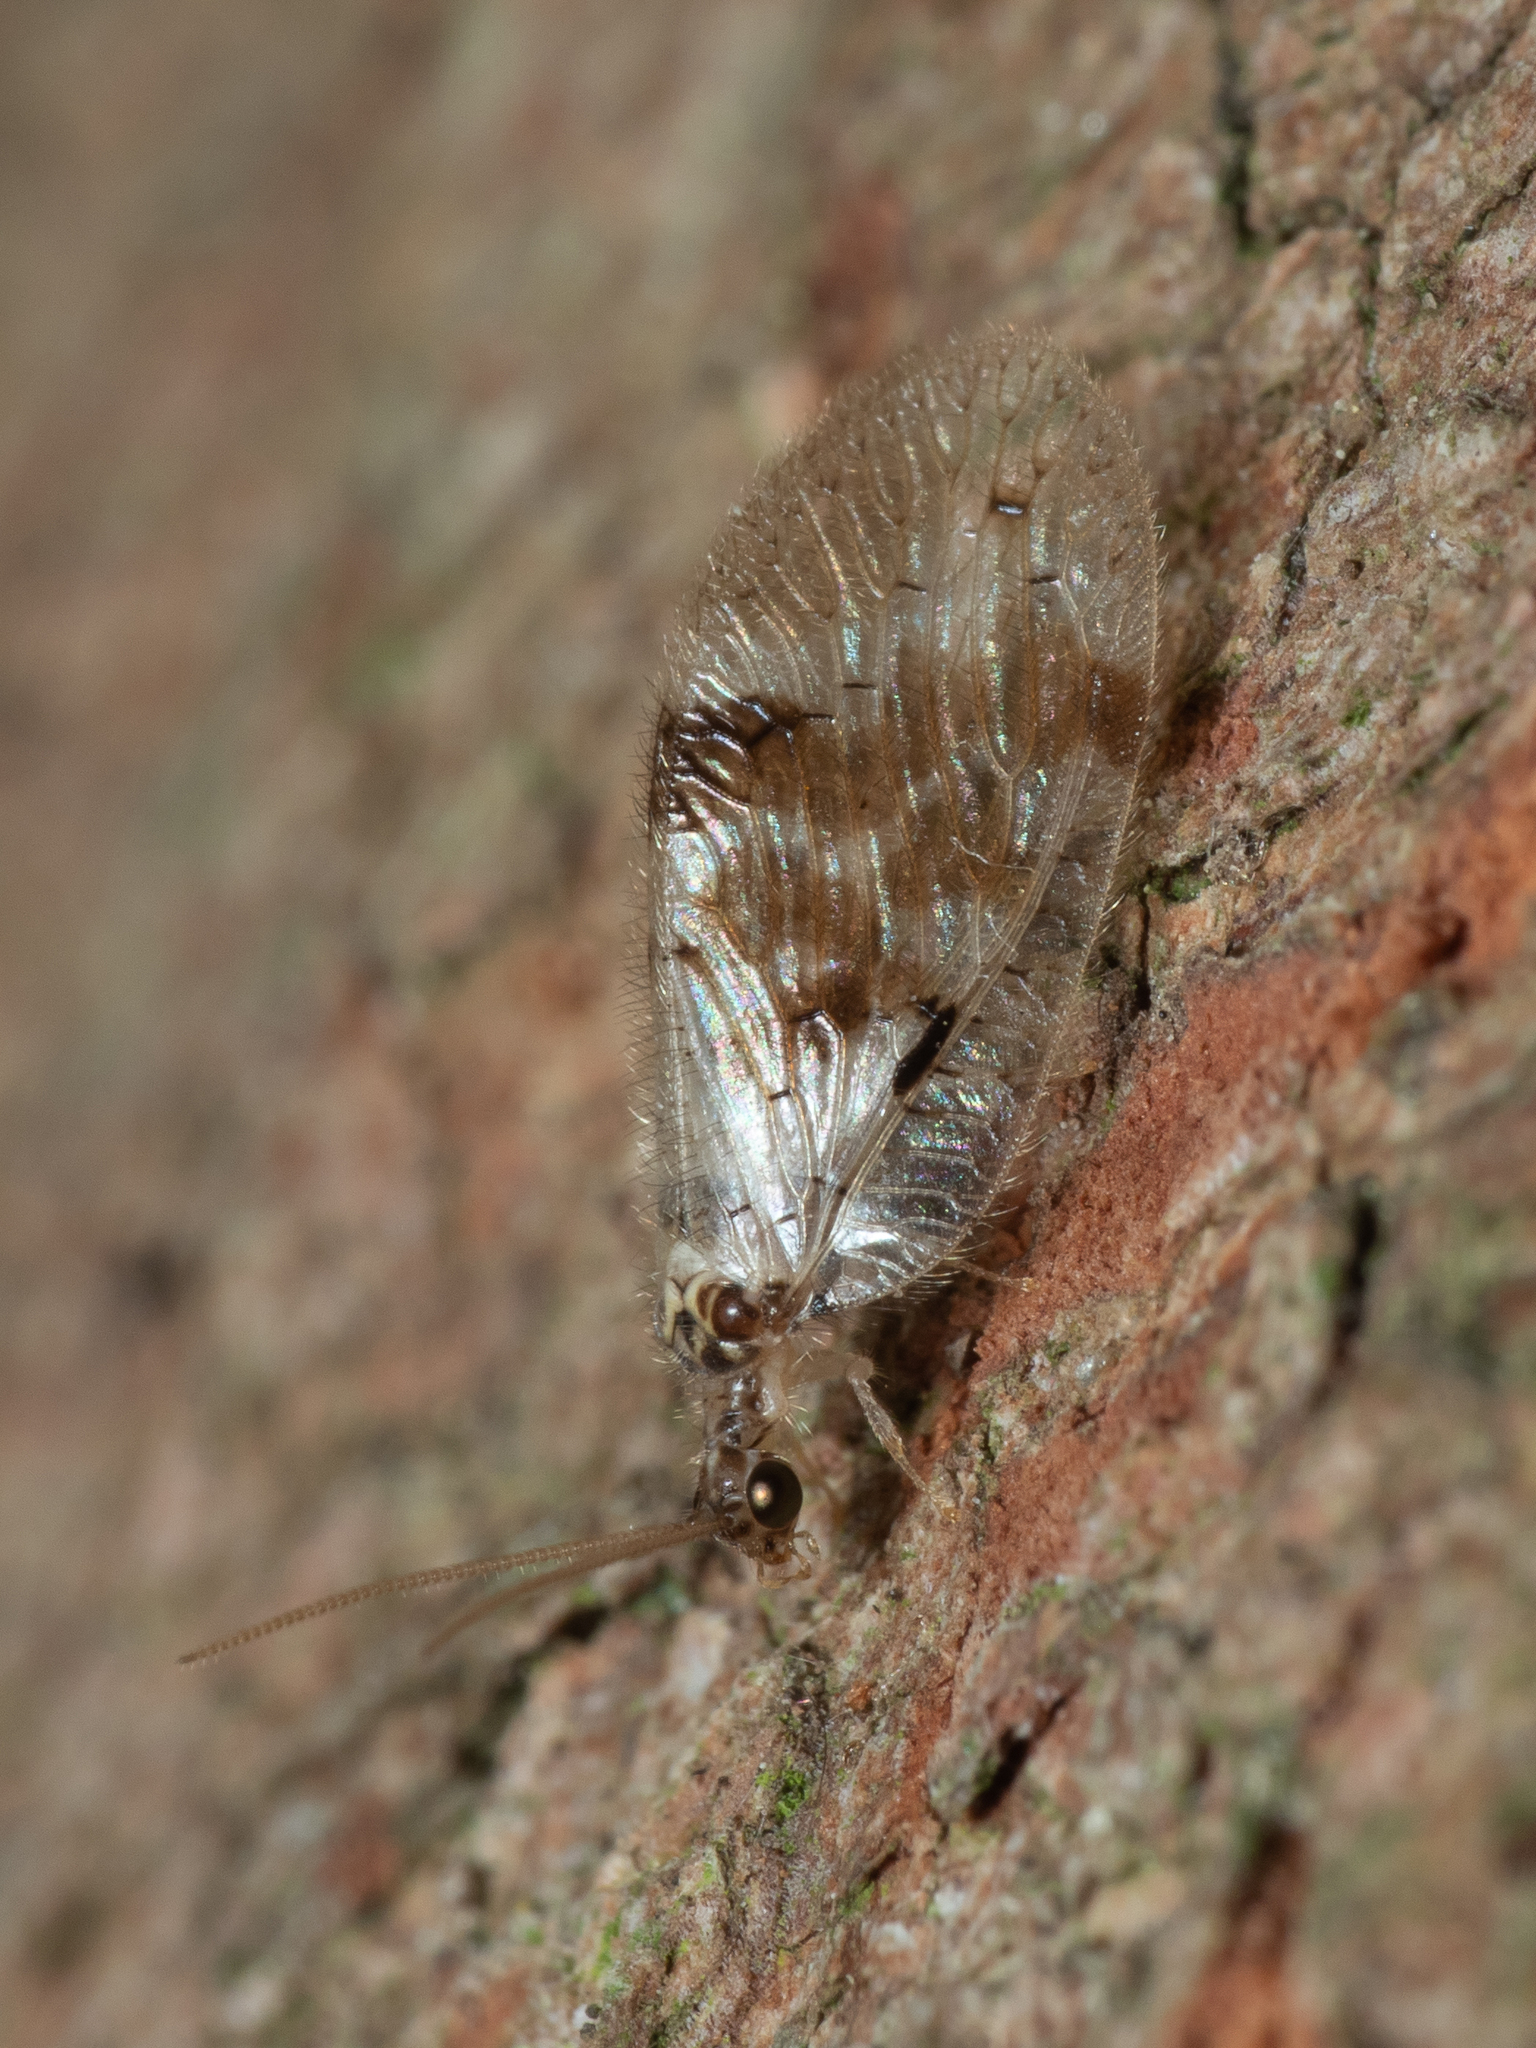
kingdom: Animalia
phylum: Arthropoda
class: Insecta
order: Neuroptera
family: Hemerobiidae
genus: Carobius
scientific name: Carobius pulchellus
